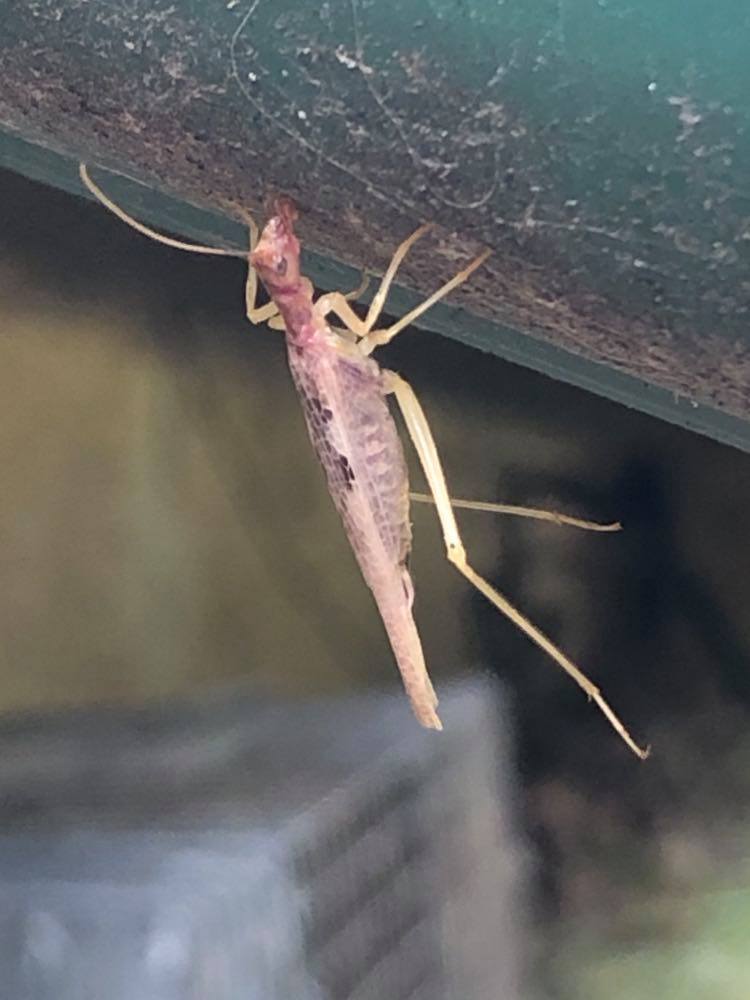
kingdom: Animalia
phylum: Arthropoda
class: Insecta
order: Orthoptera
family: Gryllidae
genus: Neoxabea
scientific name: Neoxabea bipunctata
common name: Two-spotted tree cricket
